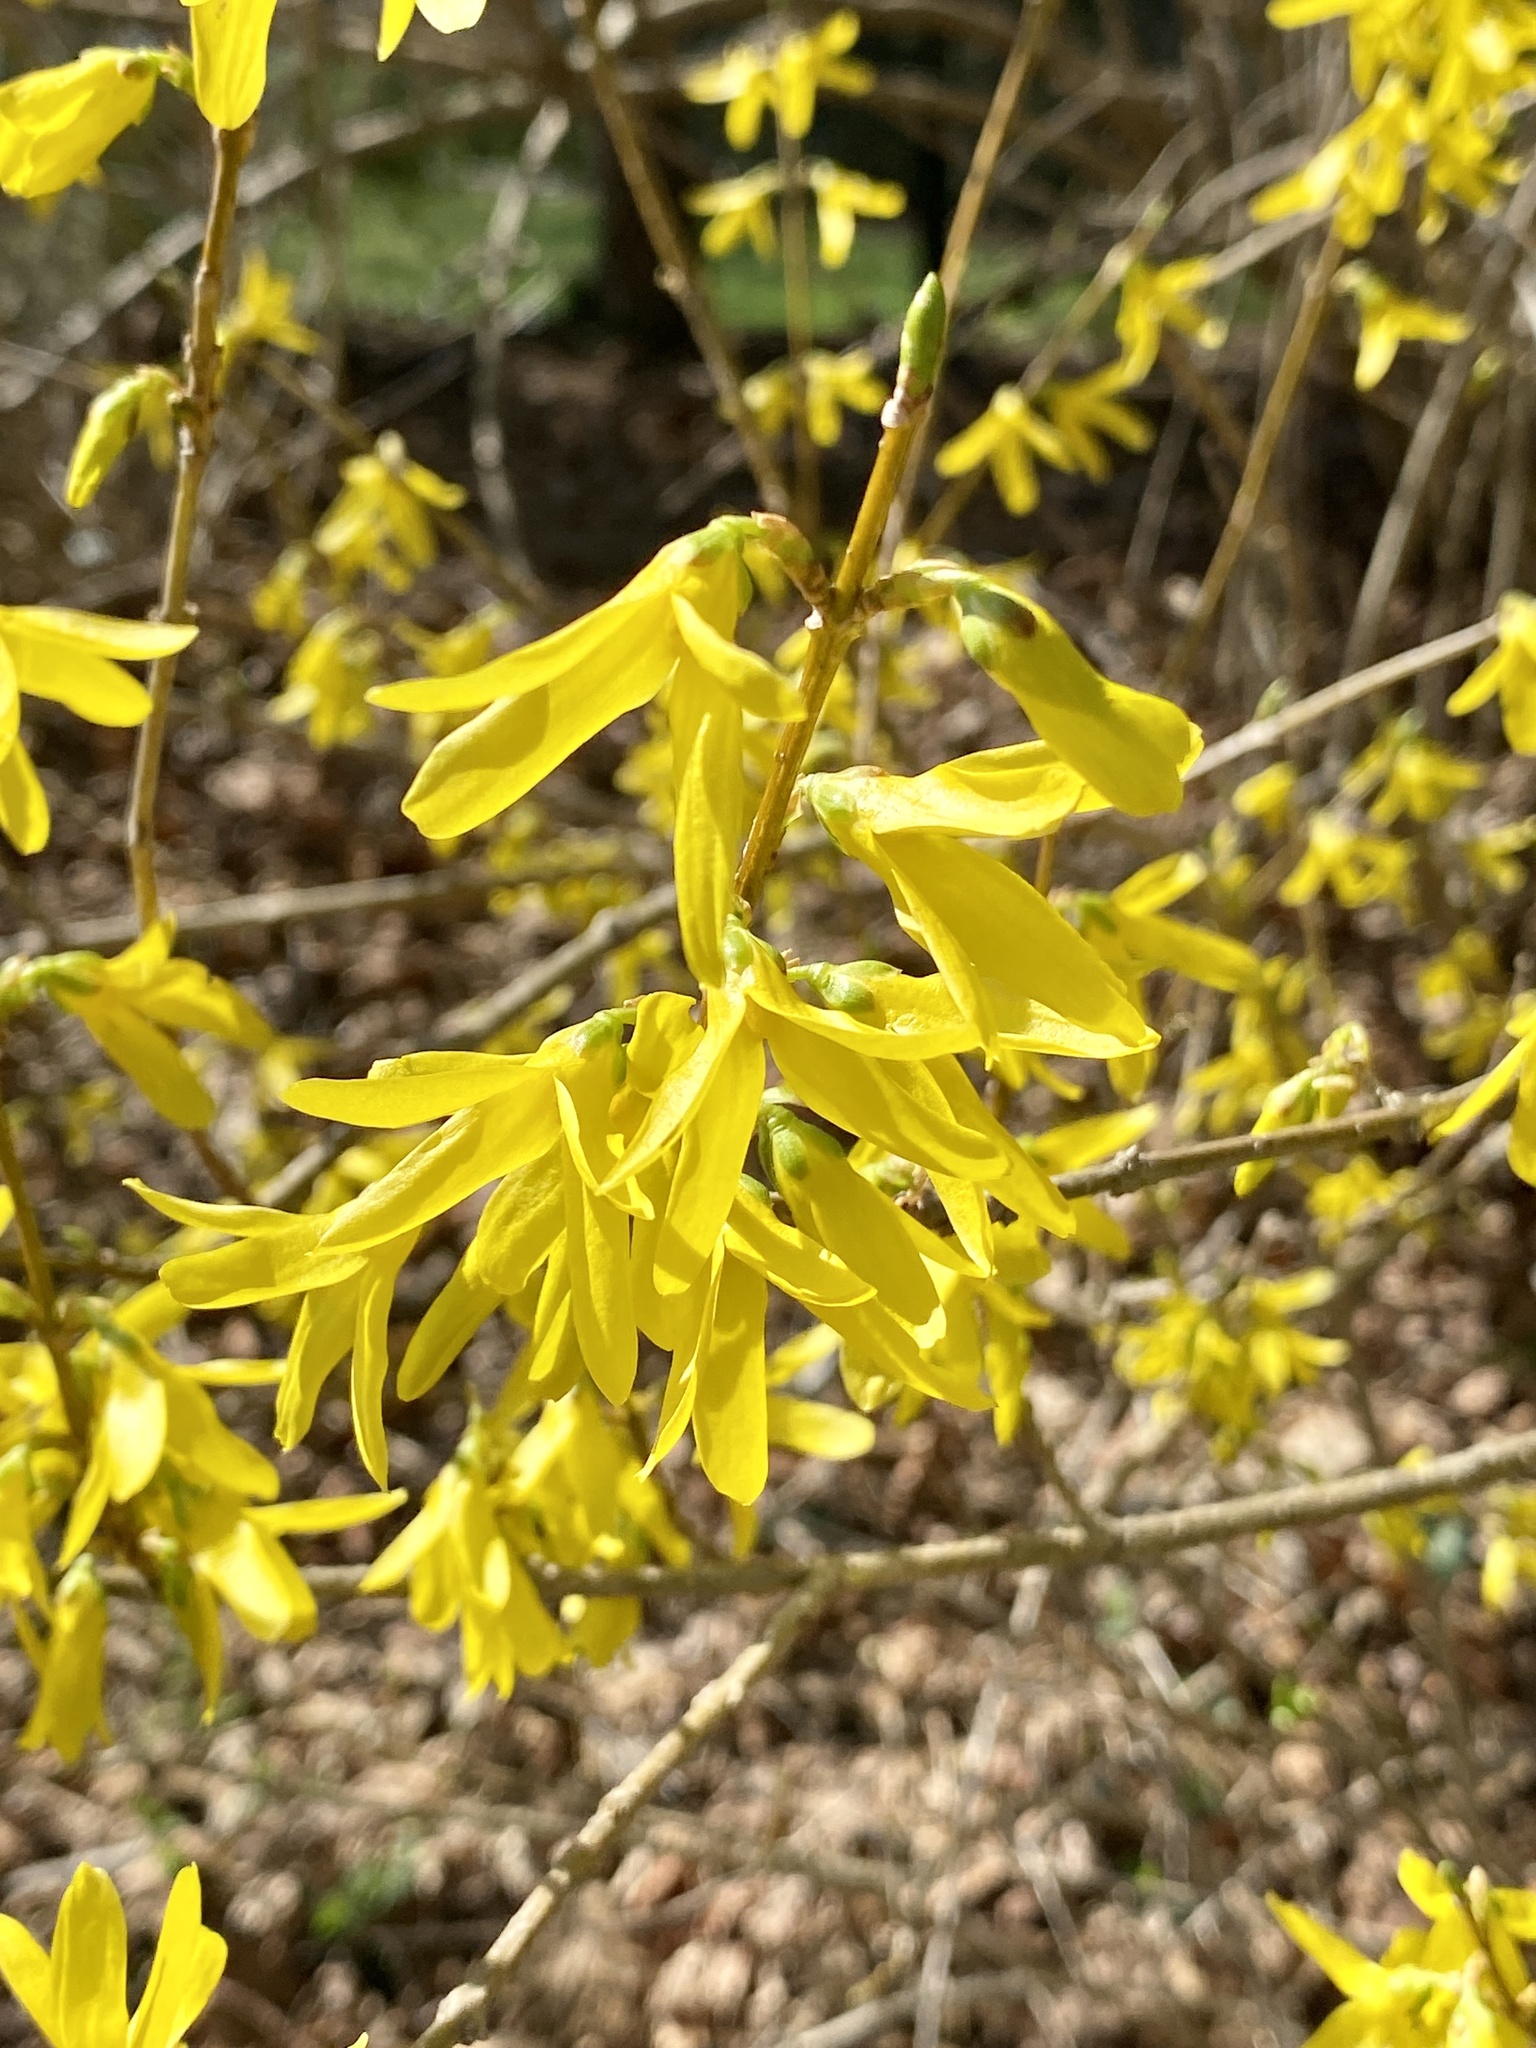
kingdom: Plantae
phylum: Tracheophyta
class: Magnoliopsida
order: Lamiales
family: Oleaceae
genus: Forsythia
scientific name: Forsythia
